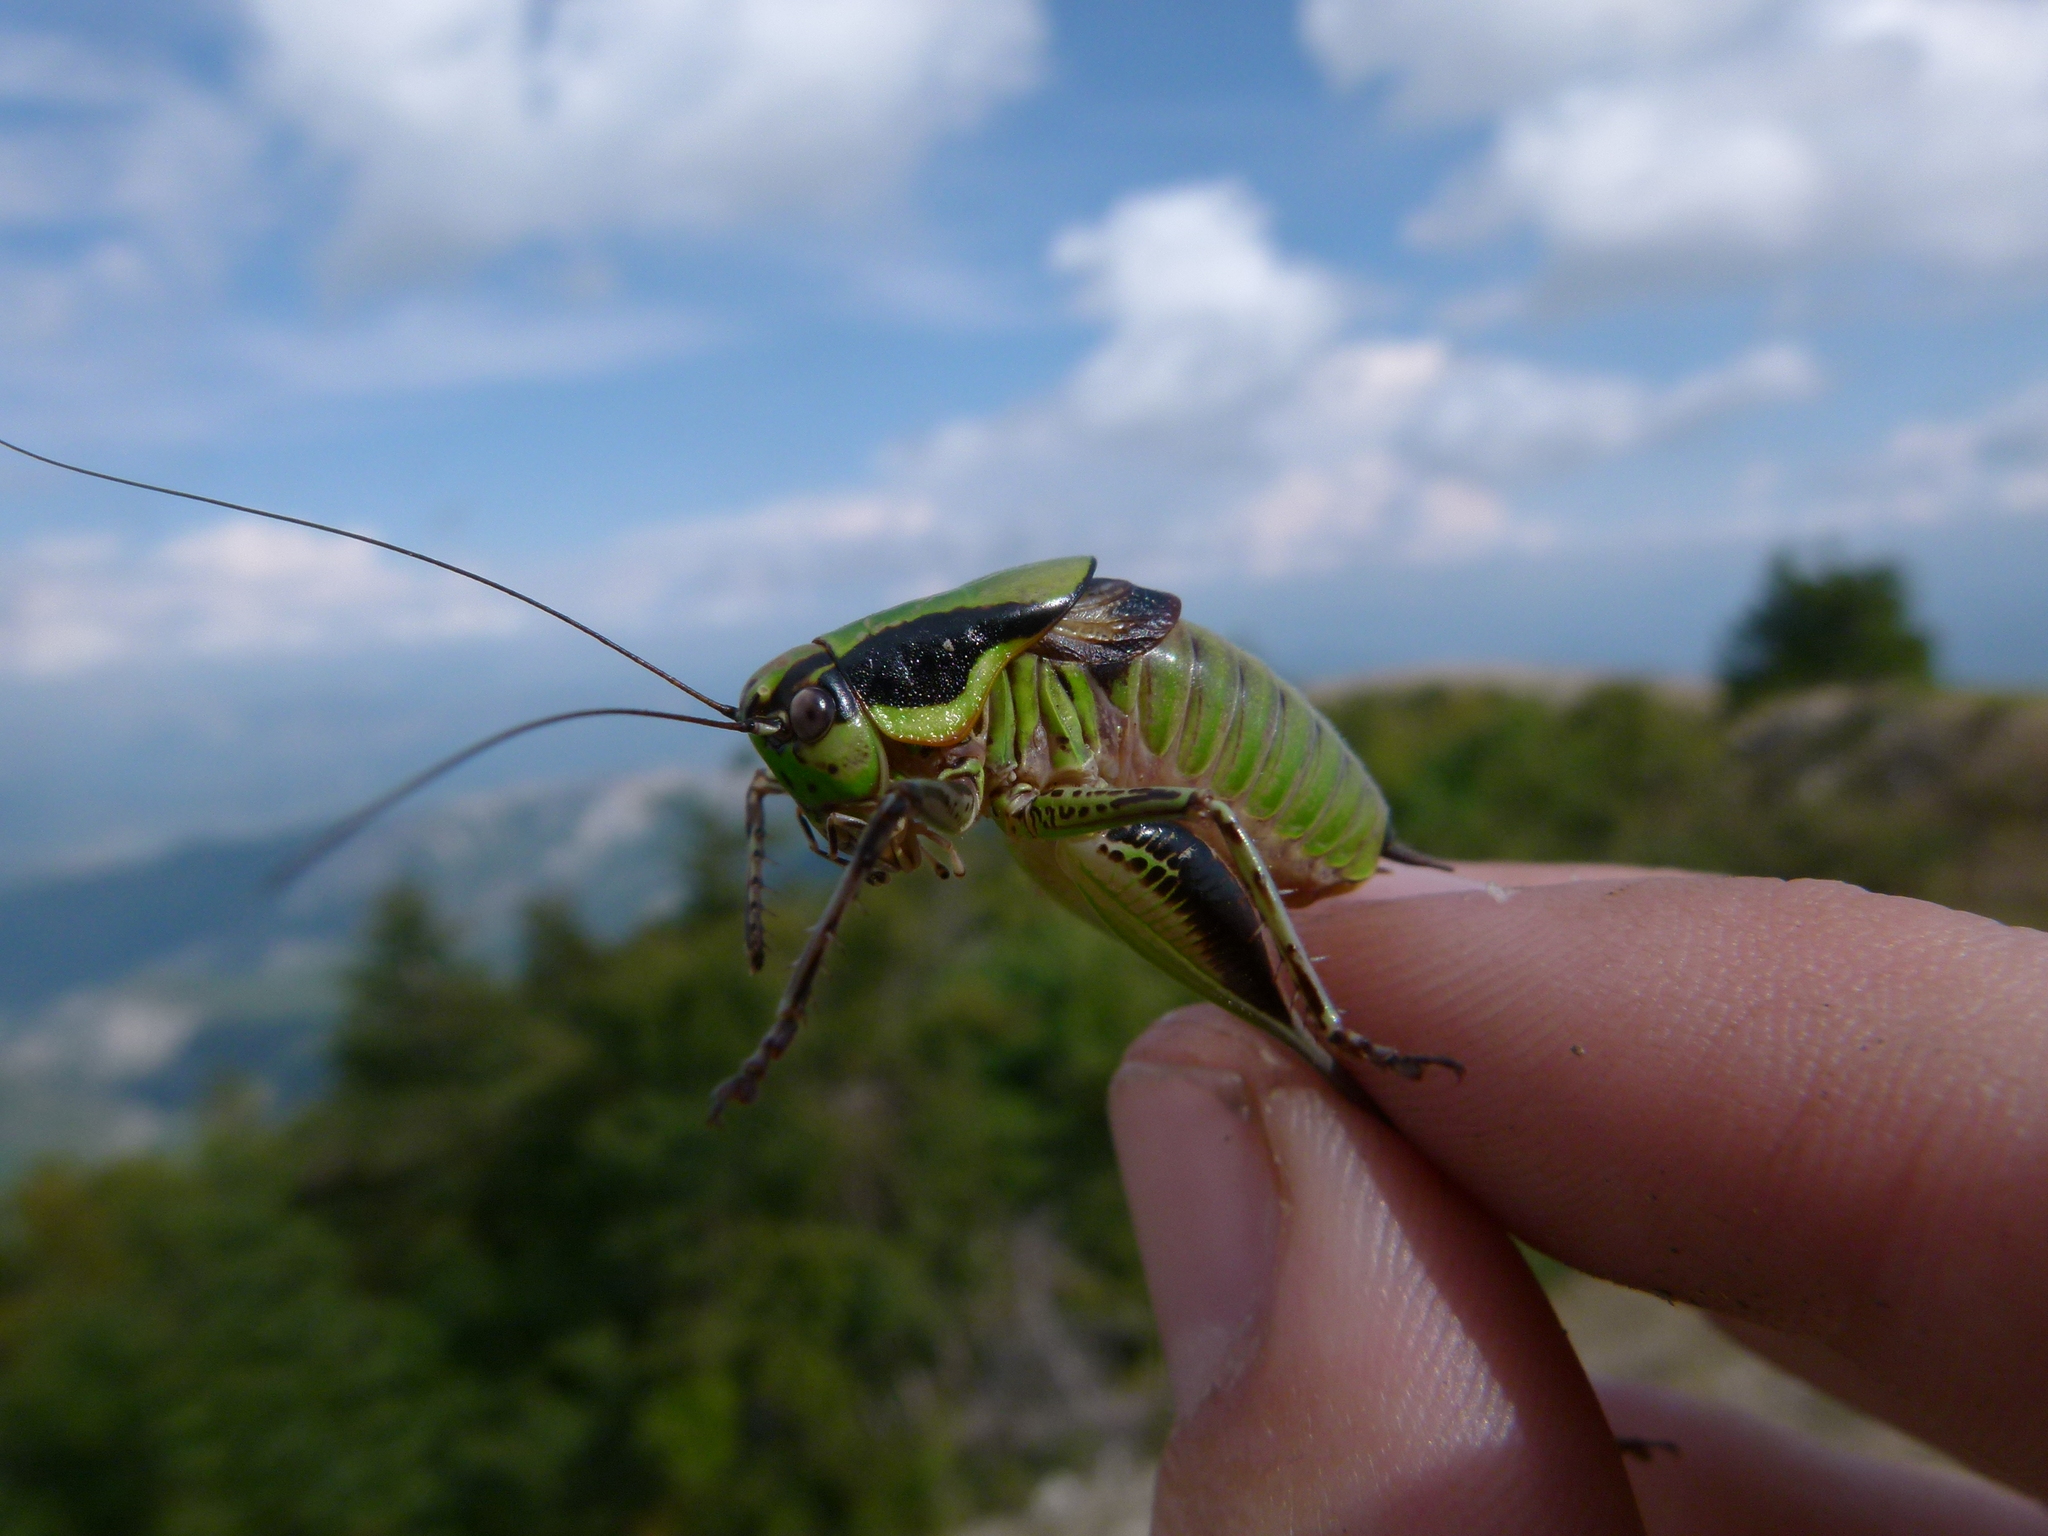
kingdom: Animalia
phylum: Arthropoda
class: Insecta
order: Orthoptera
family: Tettigoniidae
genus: Eupholidoptera
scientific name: Eupholidoptera chabrieri
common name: Chabrier's marbled bush-cricket
